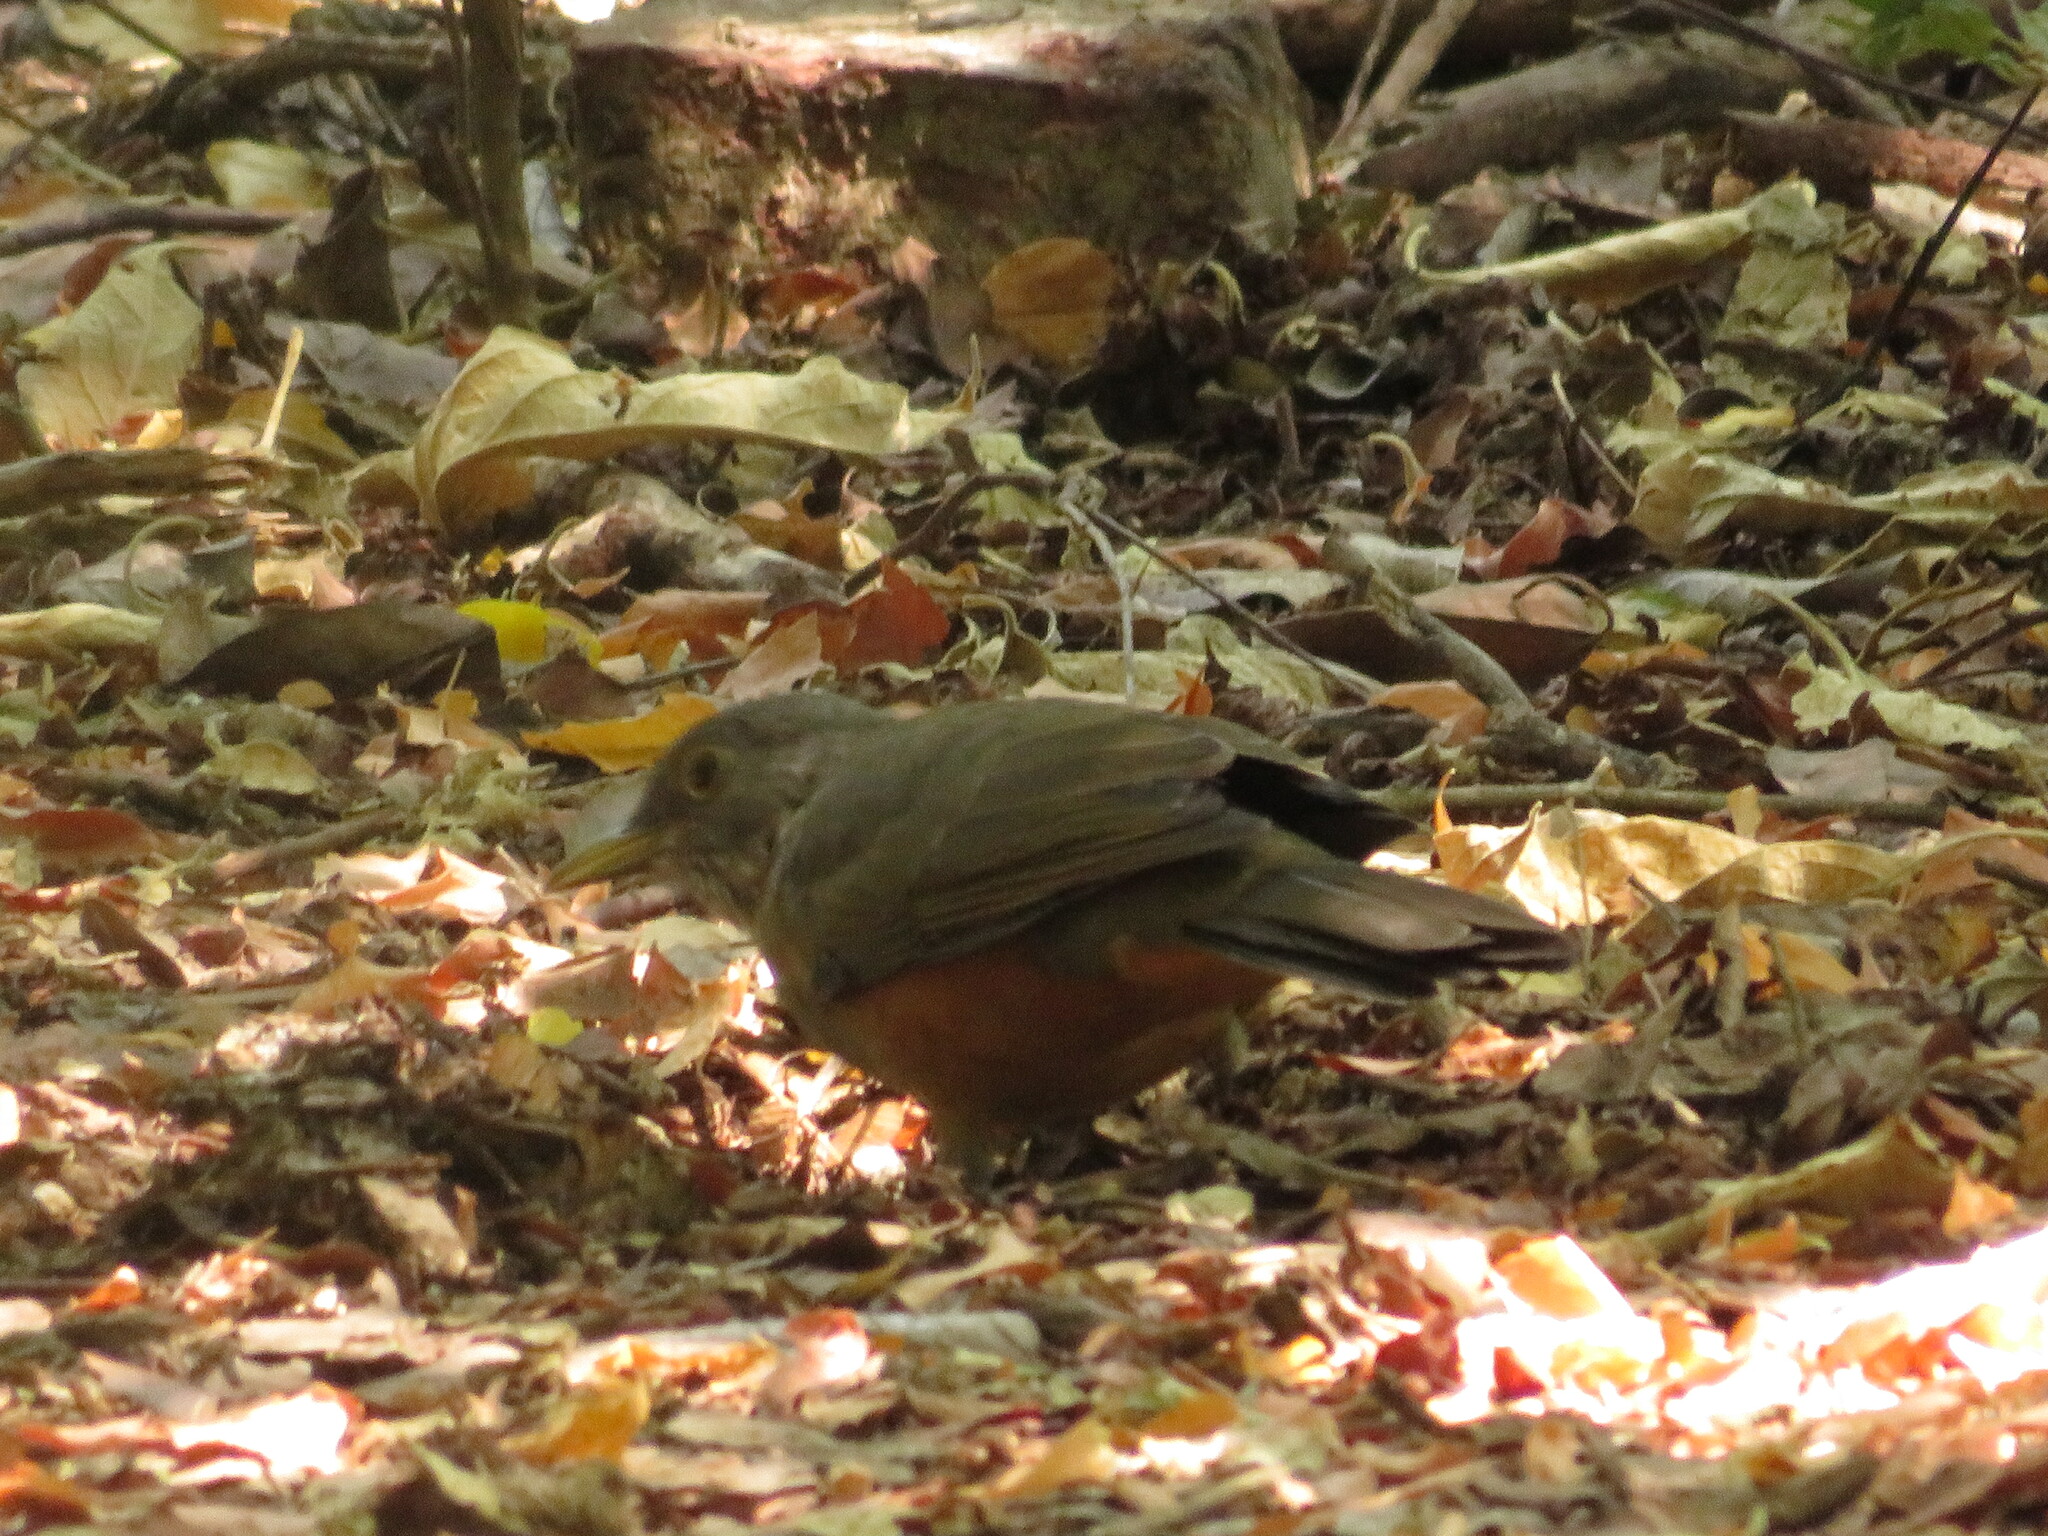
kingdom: Animalia
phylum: Chordata
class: Aves
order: Passeriformes
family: Turdidae
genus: Turdus
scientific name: Turdus rufiventris
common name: Rufous-bellied thrush
